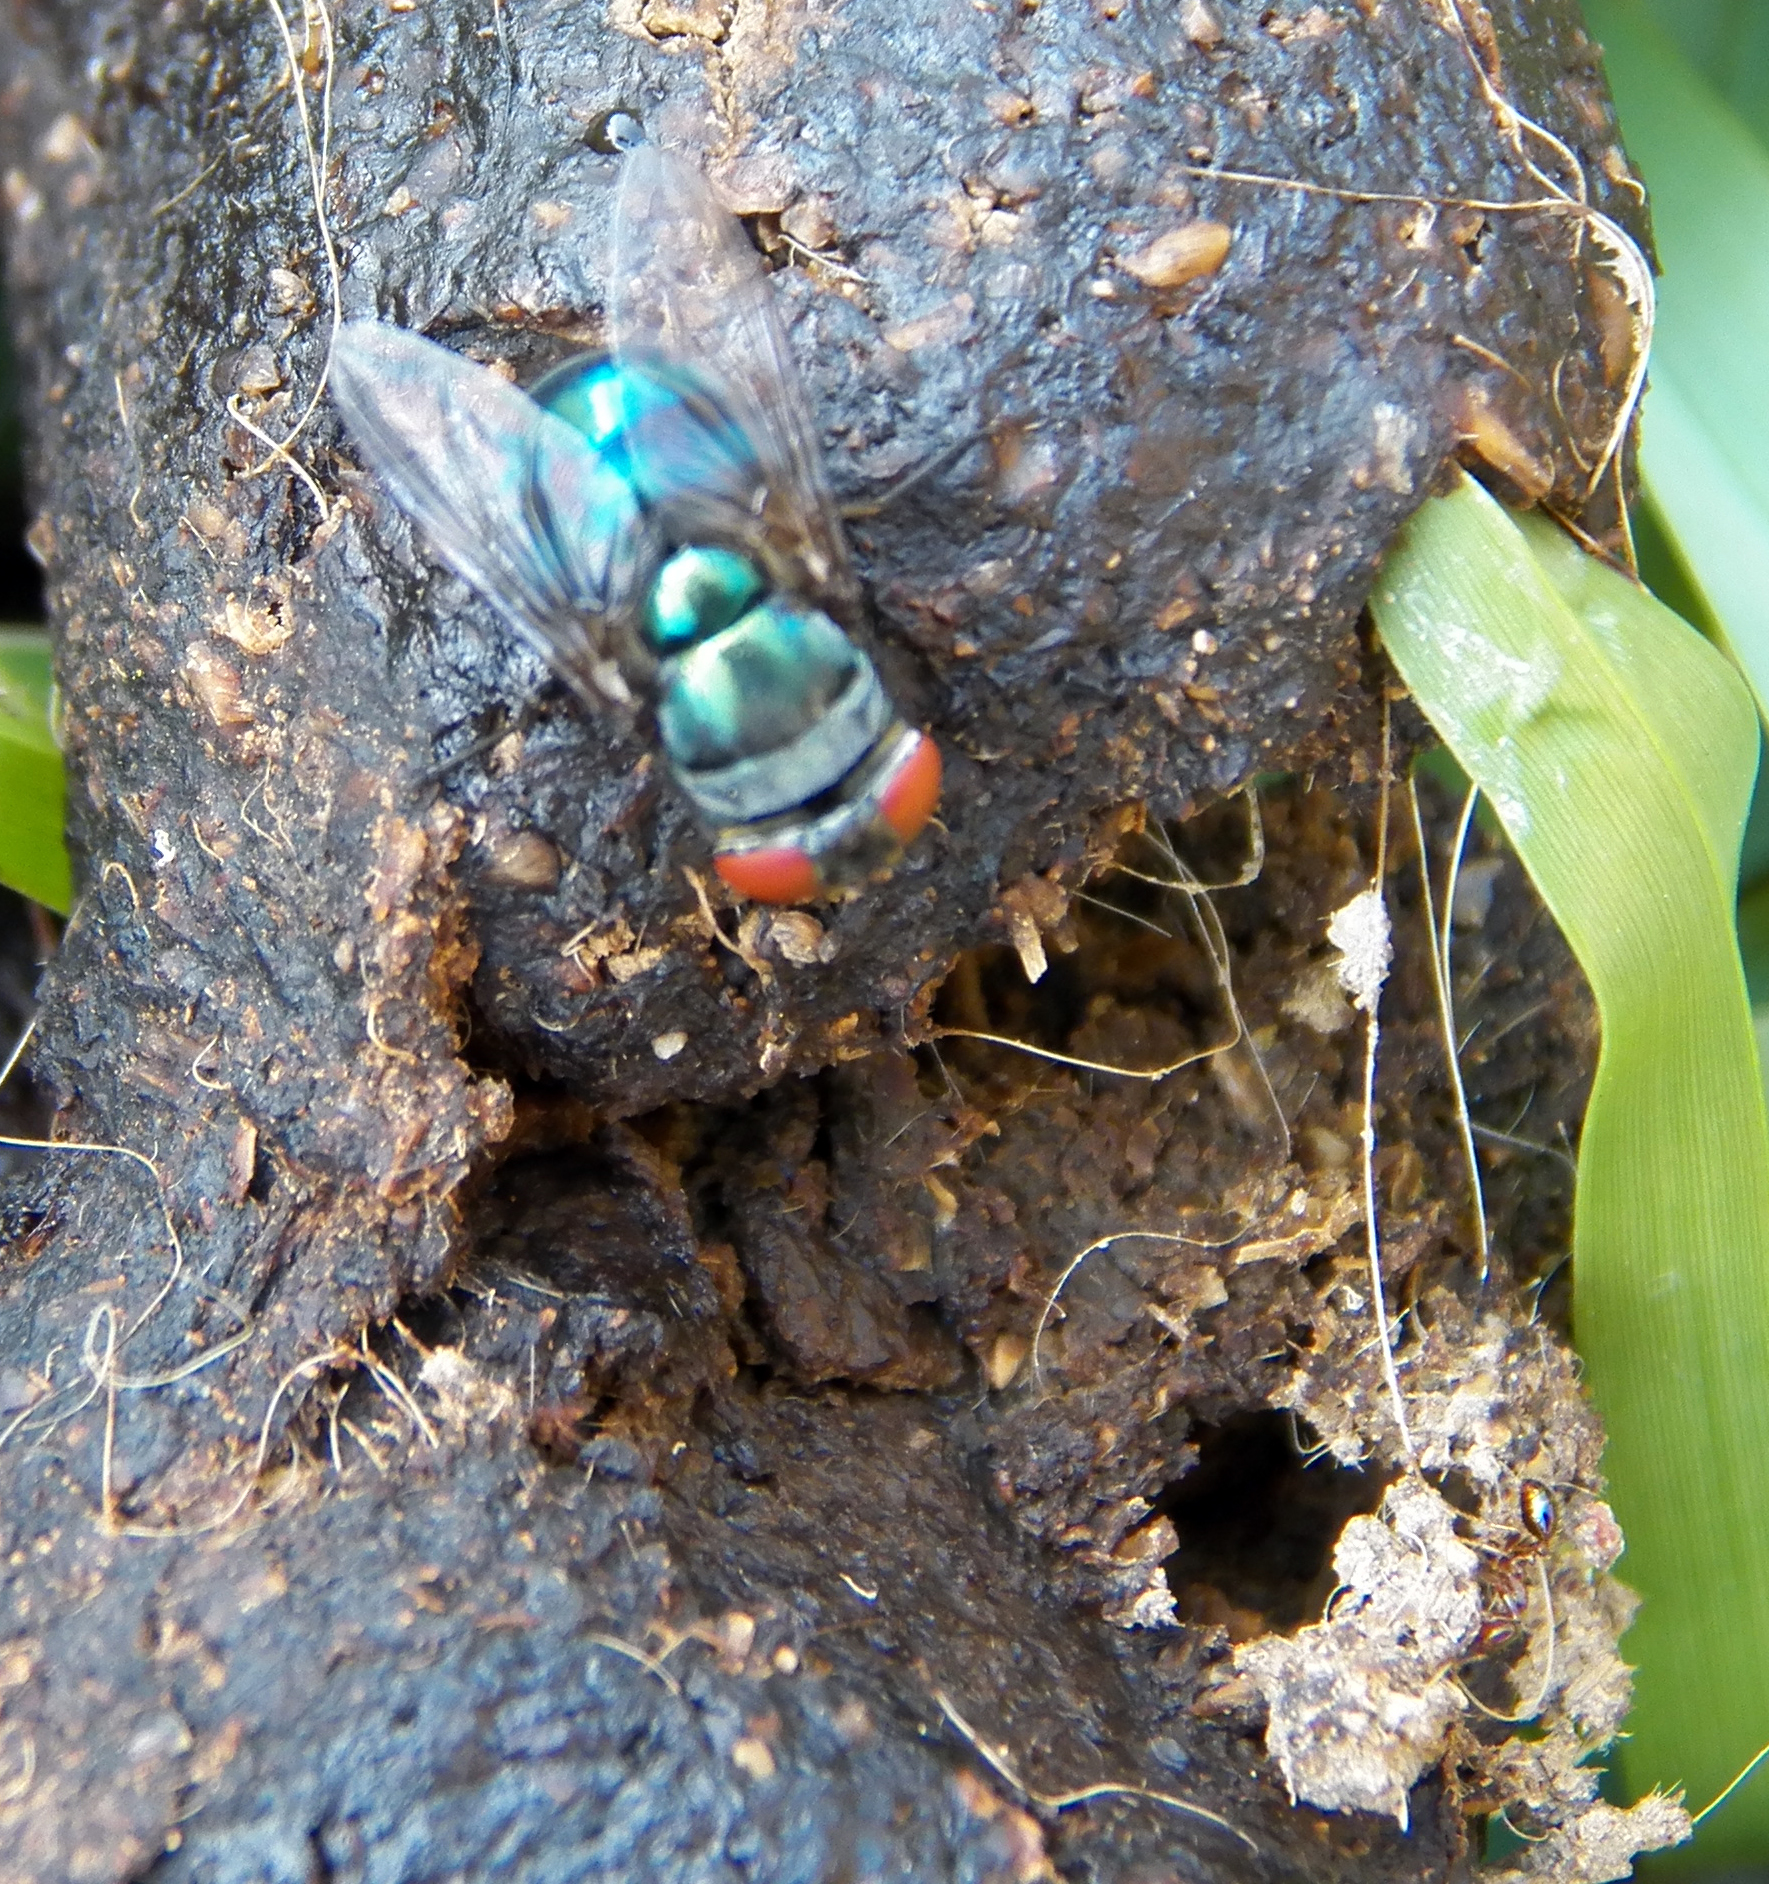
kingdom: Animalia
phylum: Arthropoda
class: Insecta
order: Diptera
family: Calliphoridae
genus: Chrysomya
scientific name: Chrysomya megacephala
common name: Blow fly
